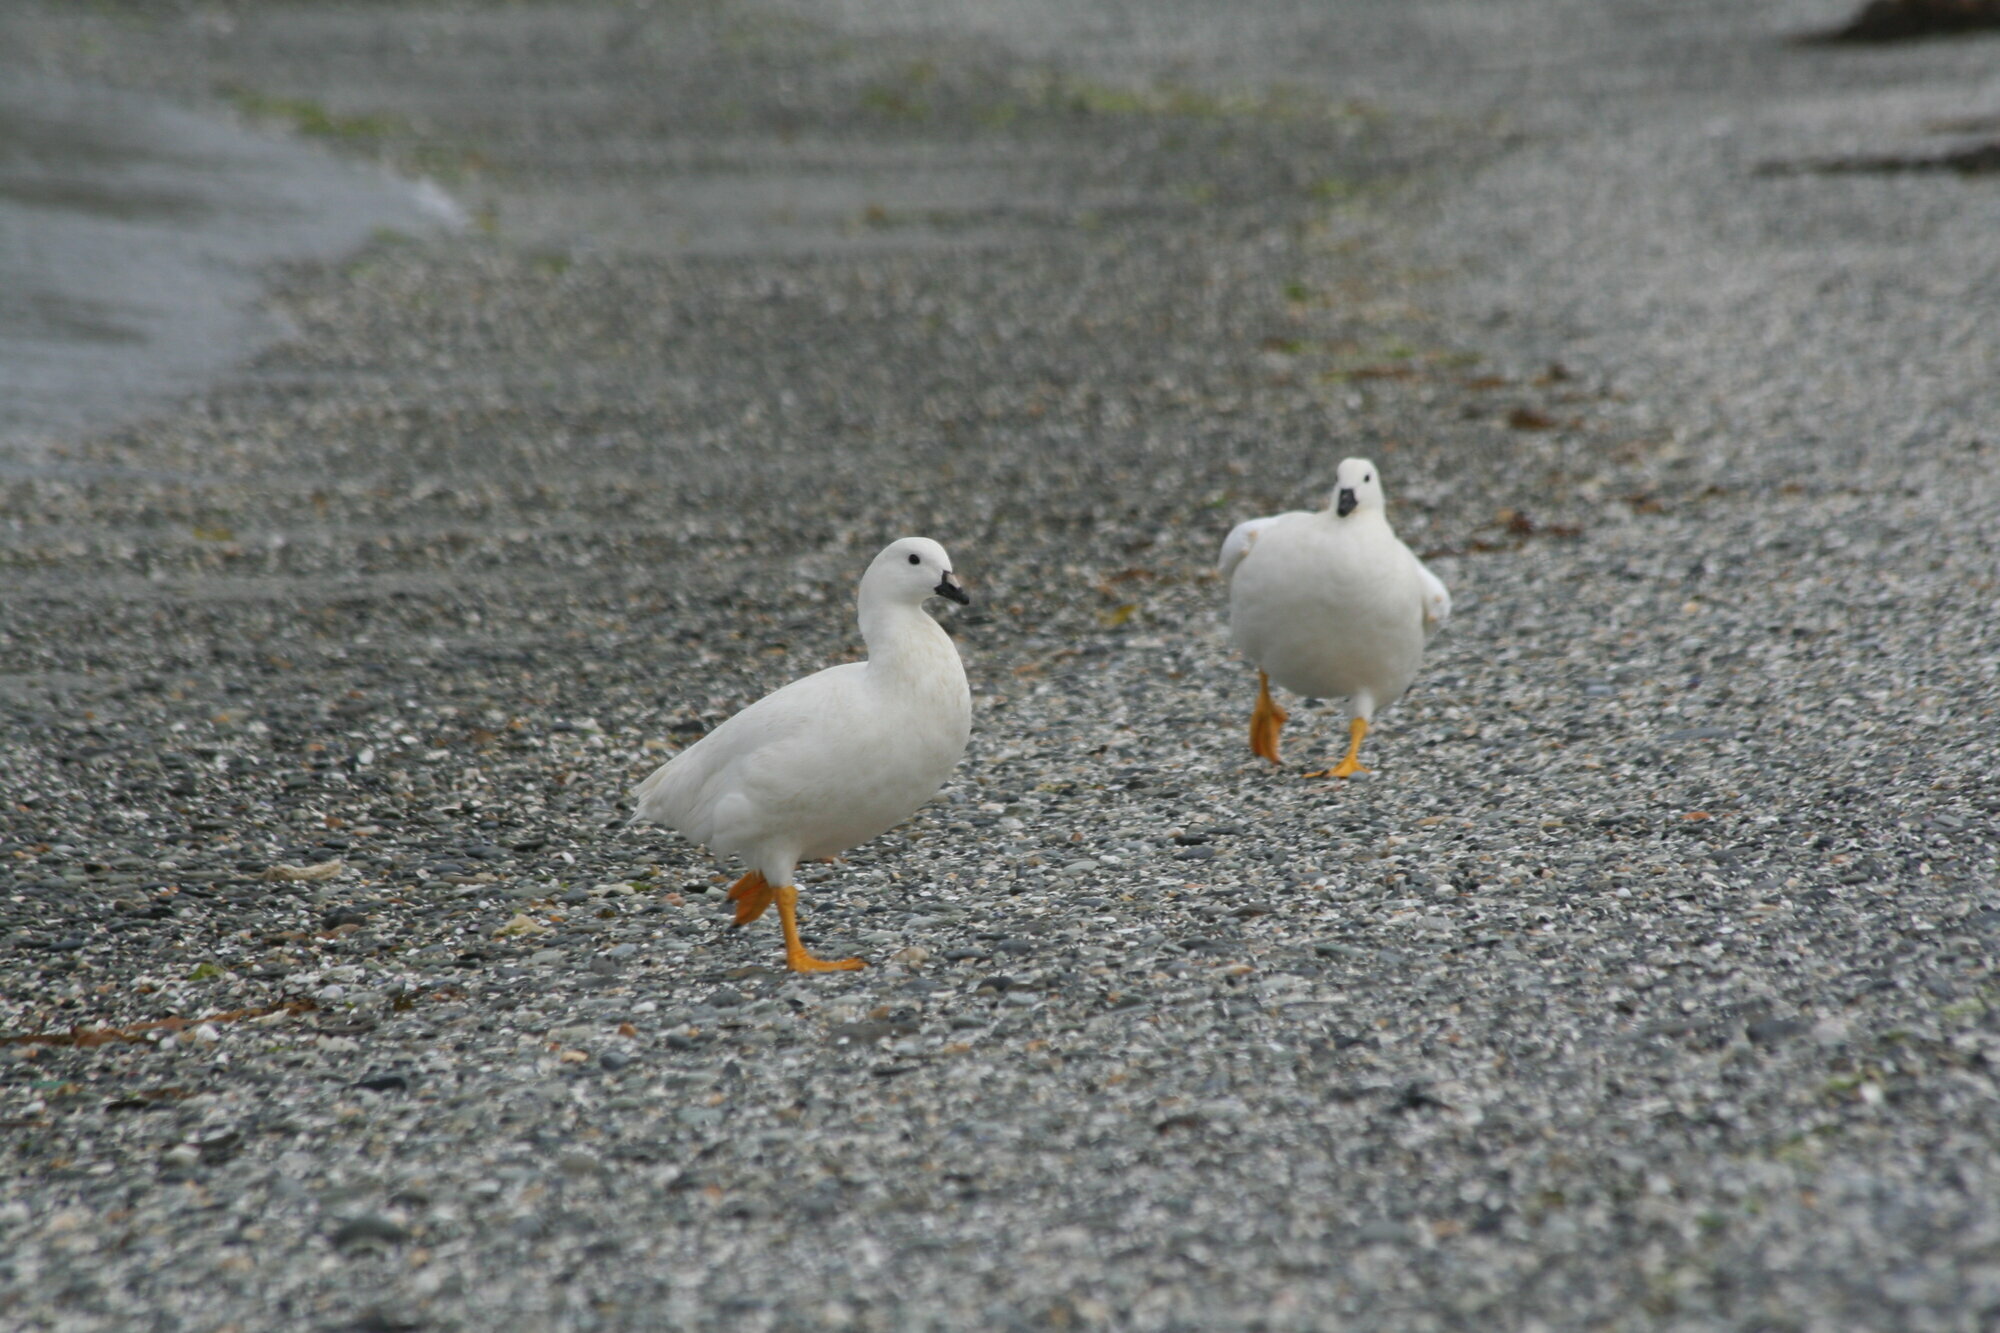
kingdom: Animalia
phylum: Chordata
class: Aves
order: Anseriformes
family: Anatidae
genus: Chloephaga
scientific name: Chloephaga hybrida
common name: Kelp goose
